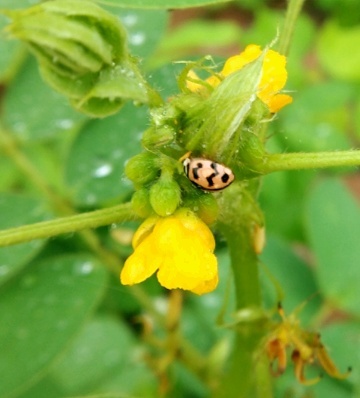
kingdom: Animalia
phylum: Arthropoda
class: Insecta
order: Coleoptera
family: Coccinellidae
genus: Cheilomenes
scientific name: Cheilomenes sexmaculata
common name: Ladybird beetle
